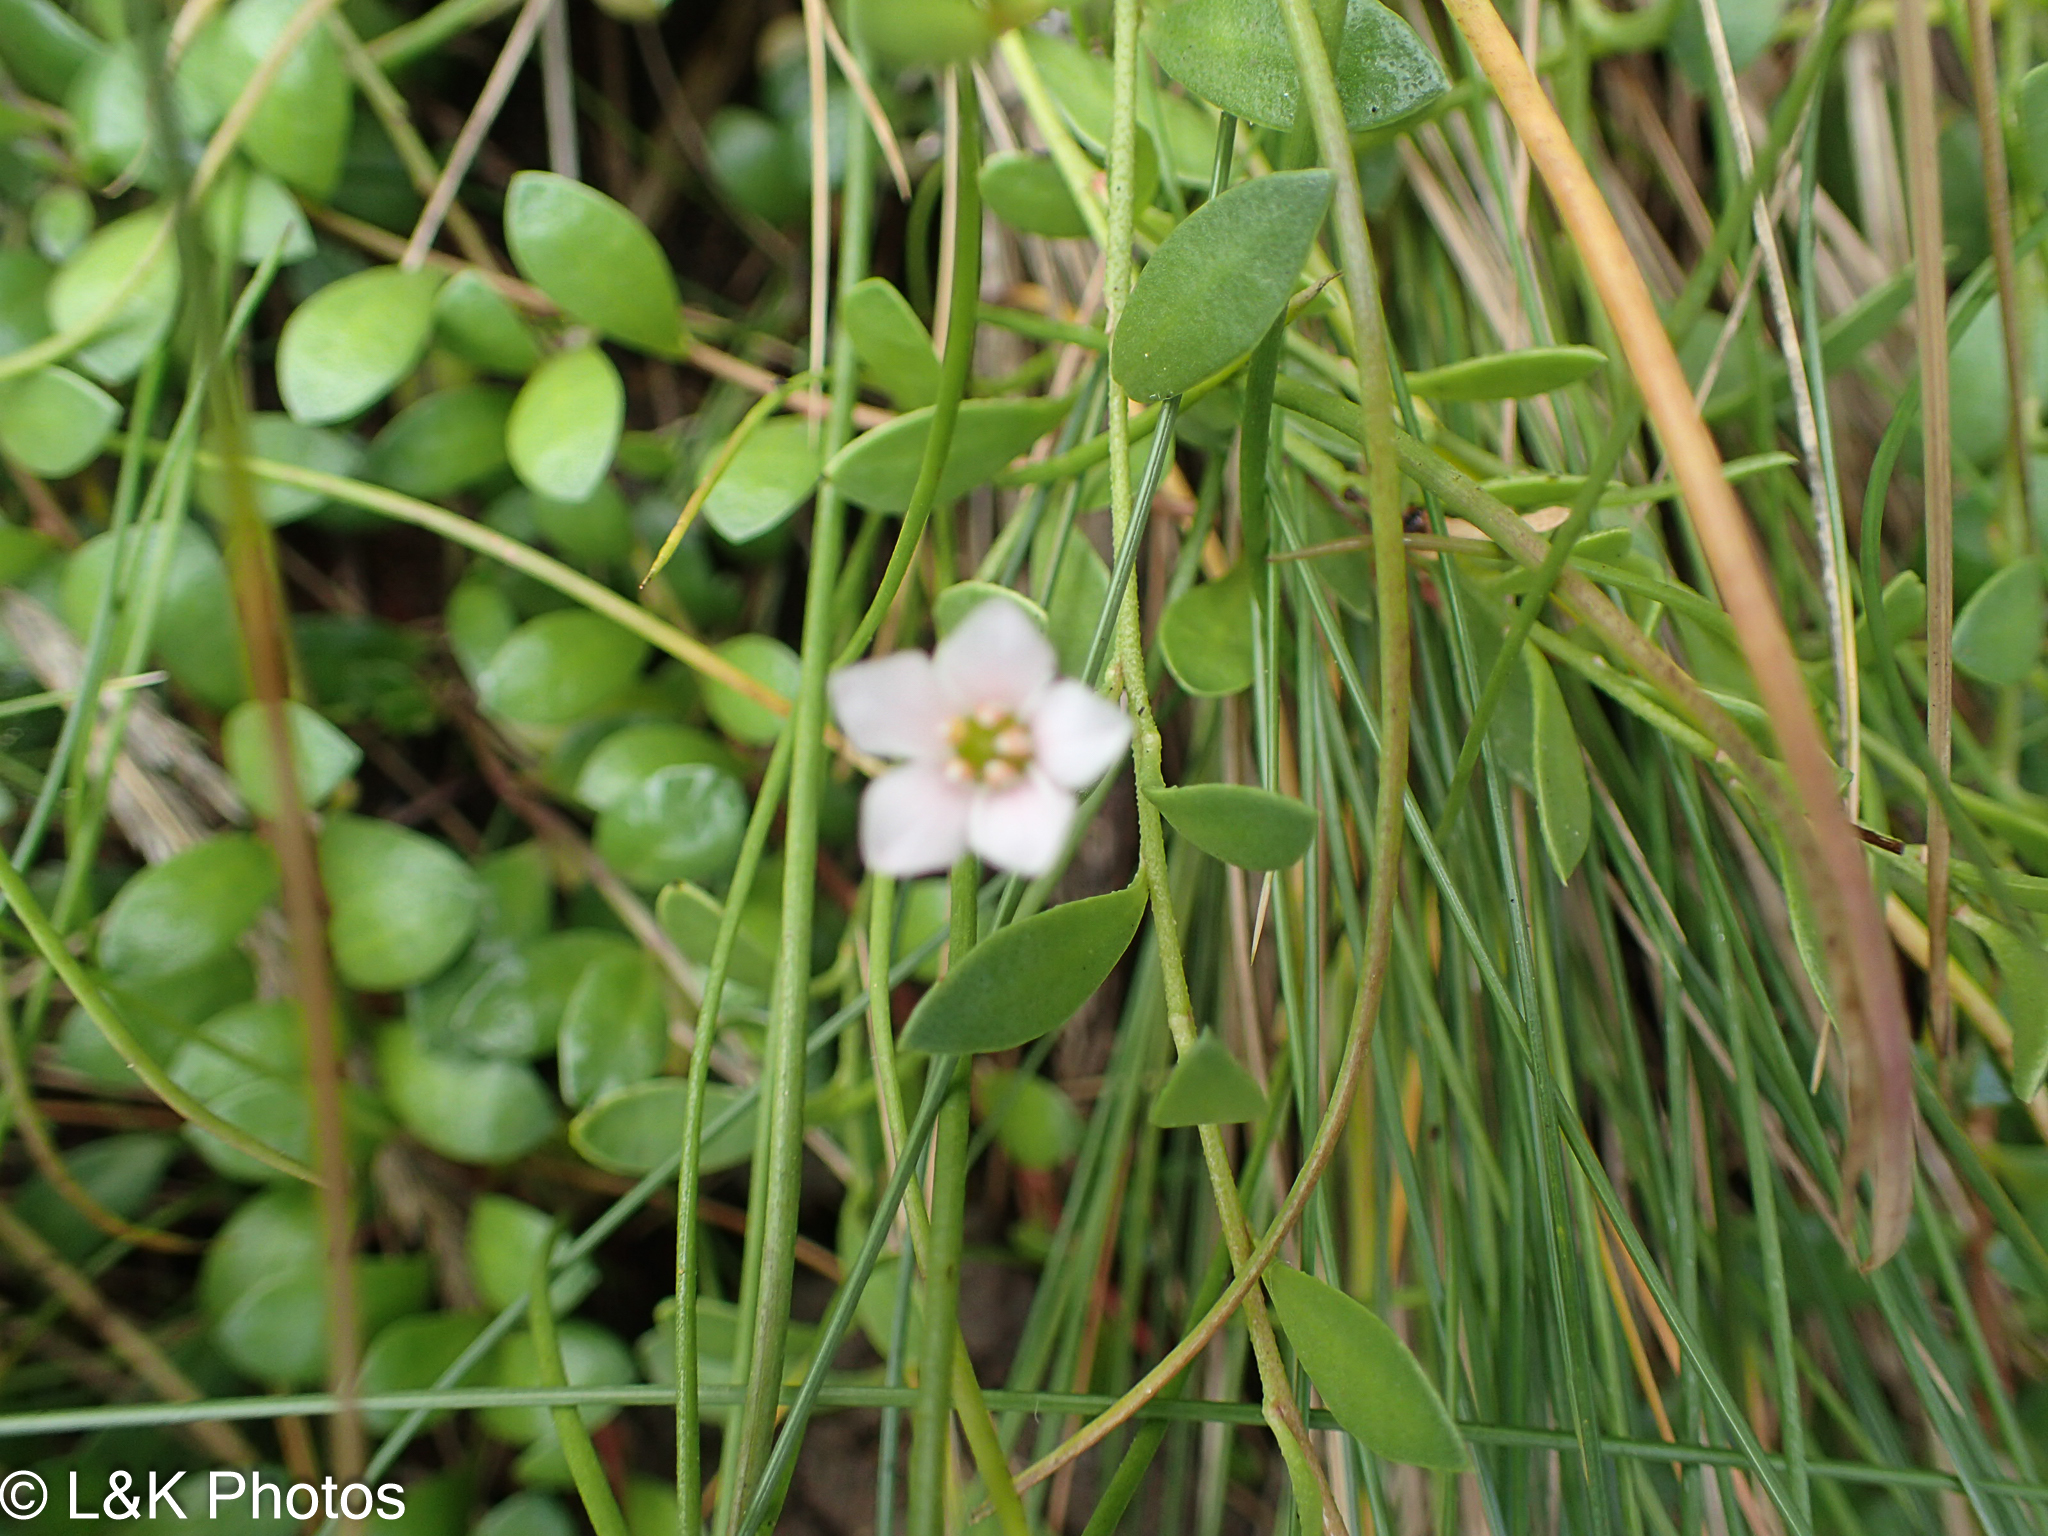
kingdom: Plantae
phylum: Tracheophyta
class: Magnoliopsida
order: Ericales
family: Primulaceae
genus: Samolus
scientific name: Samolus repens
